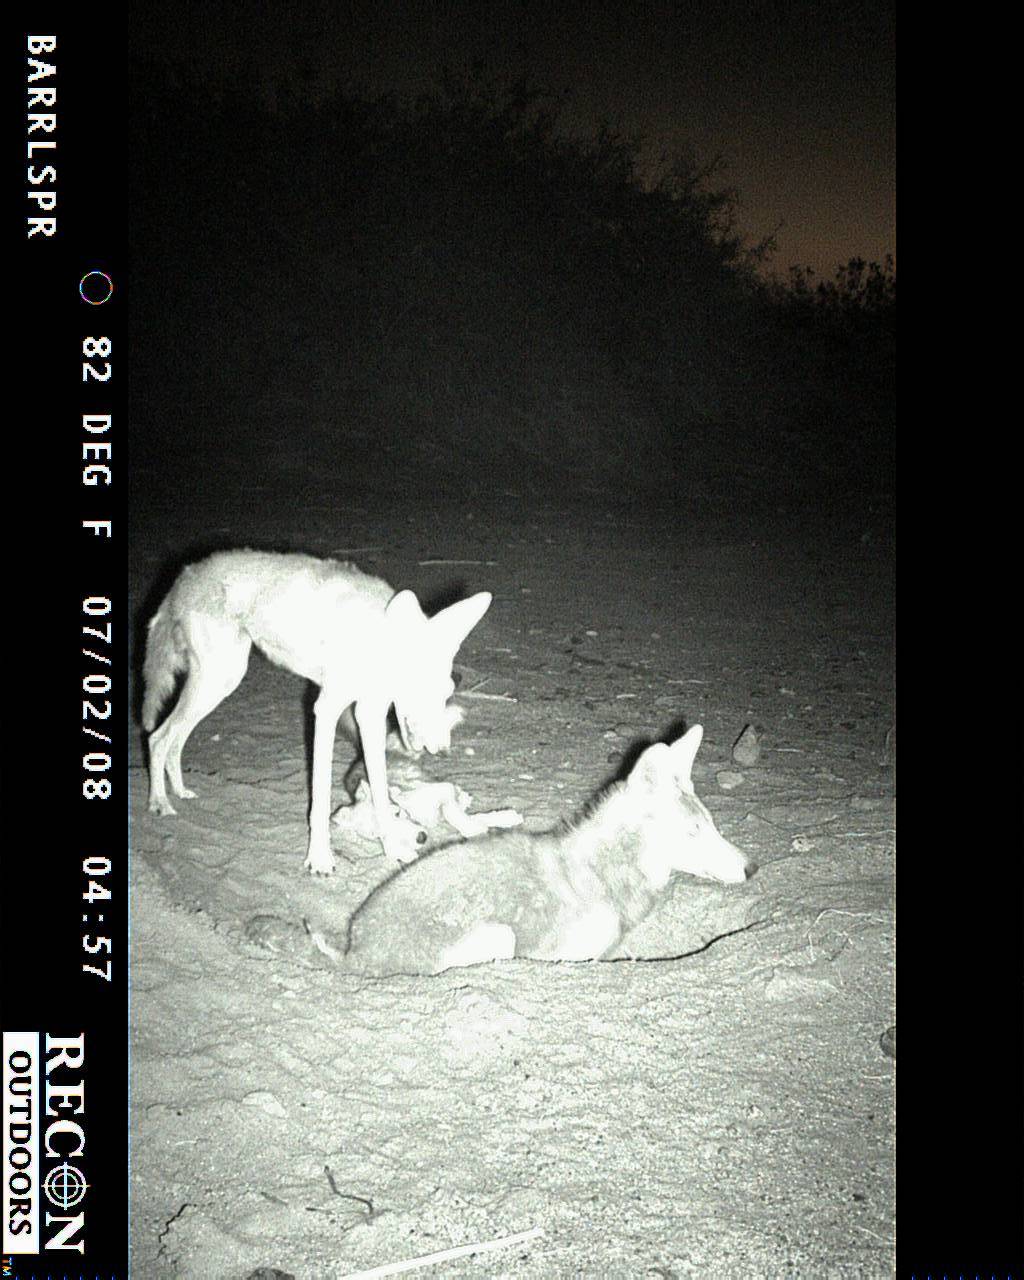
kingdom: Animalia
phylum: Chordata
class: Mammalia
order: Carnivora
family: Canidae
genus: Canis
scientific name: Canis latrans
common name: Coyote
